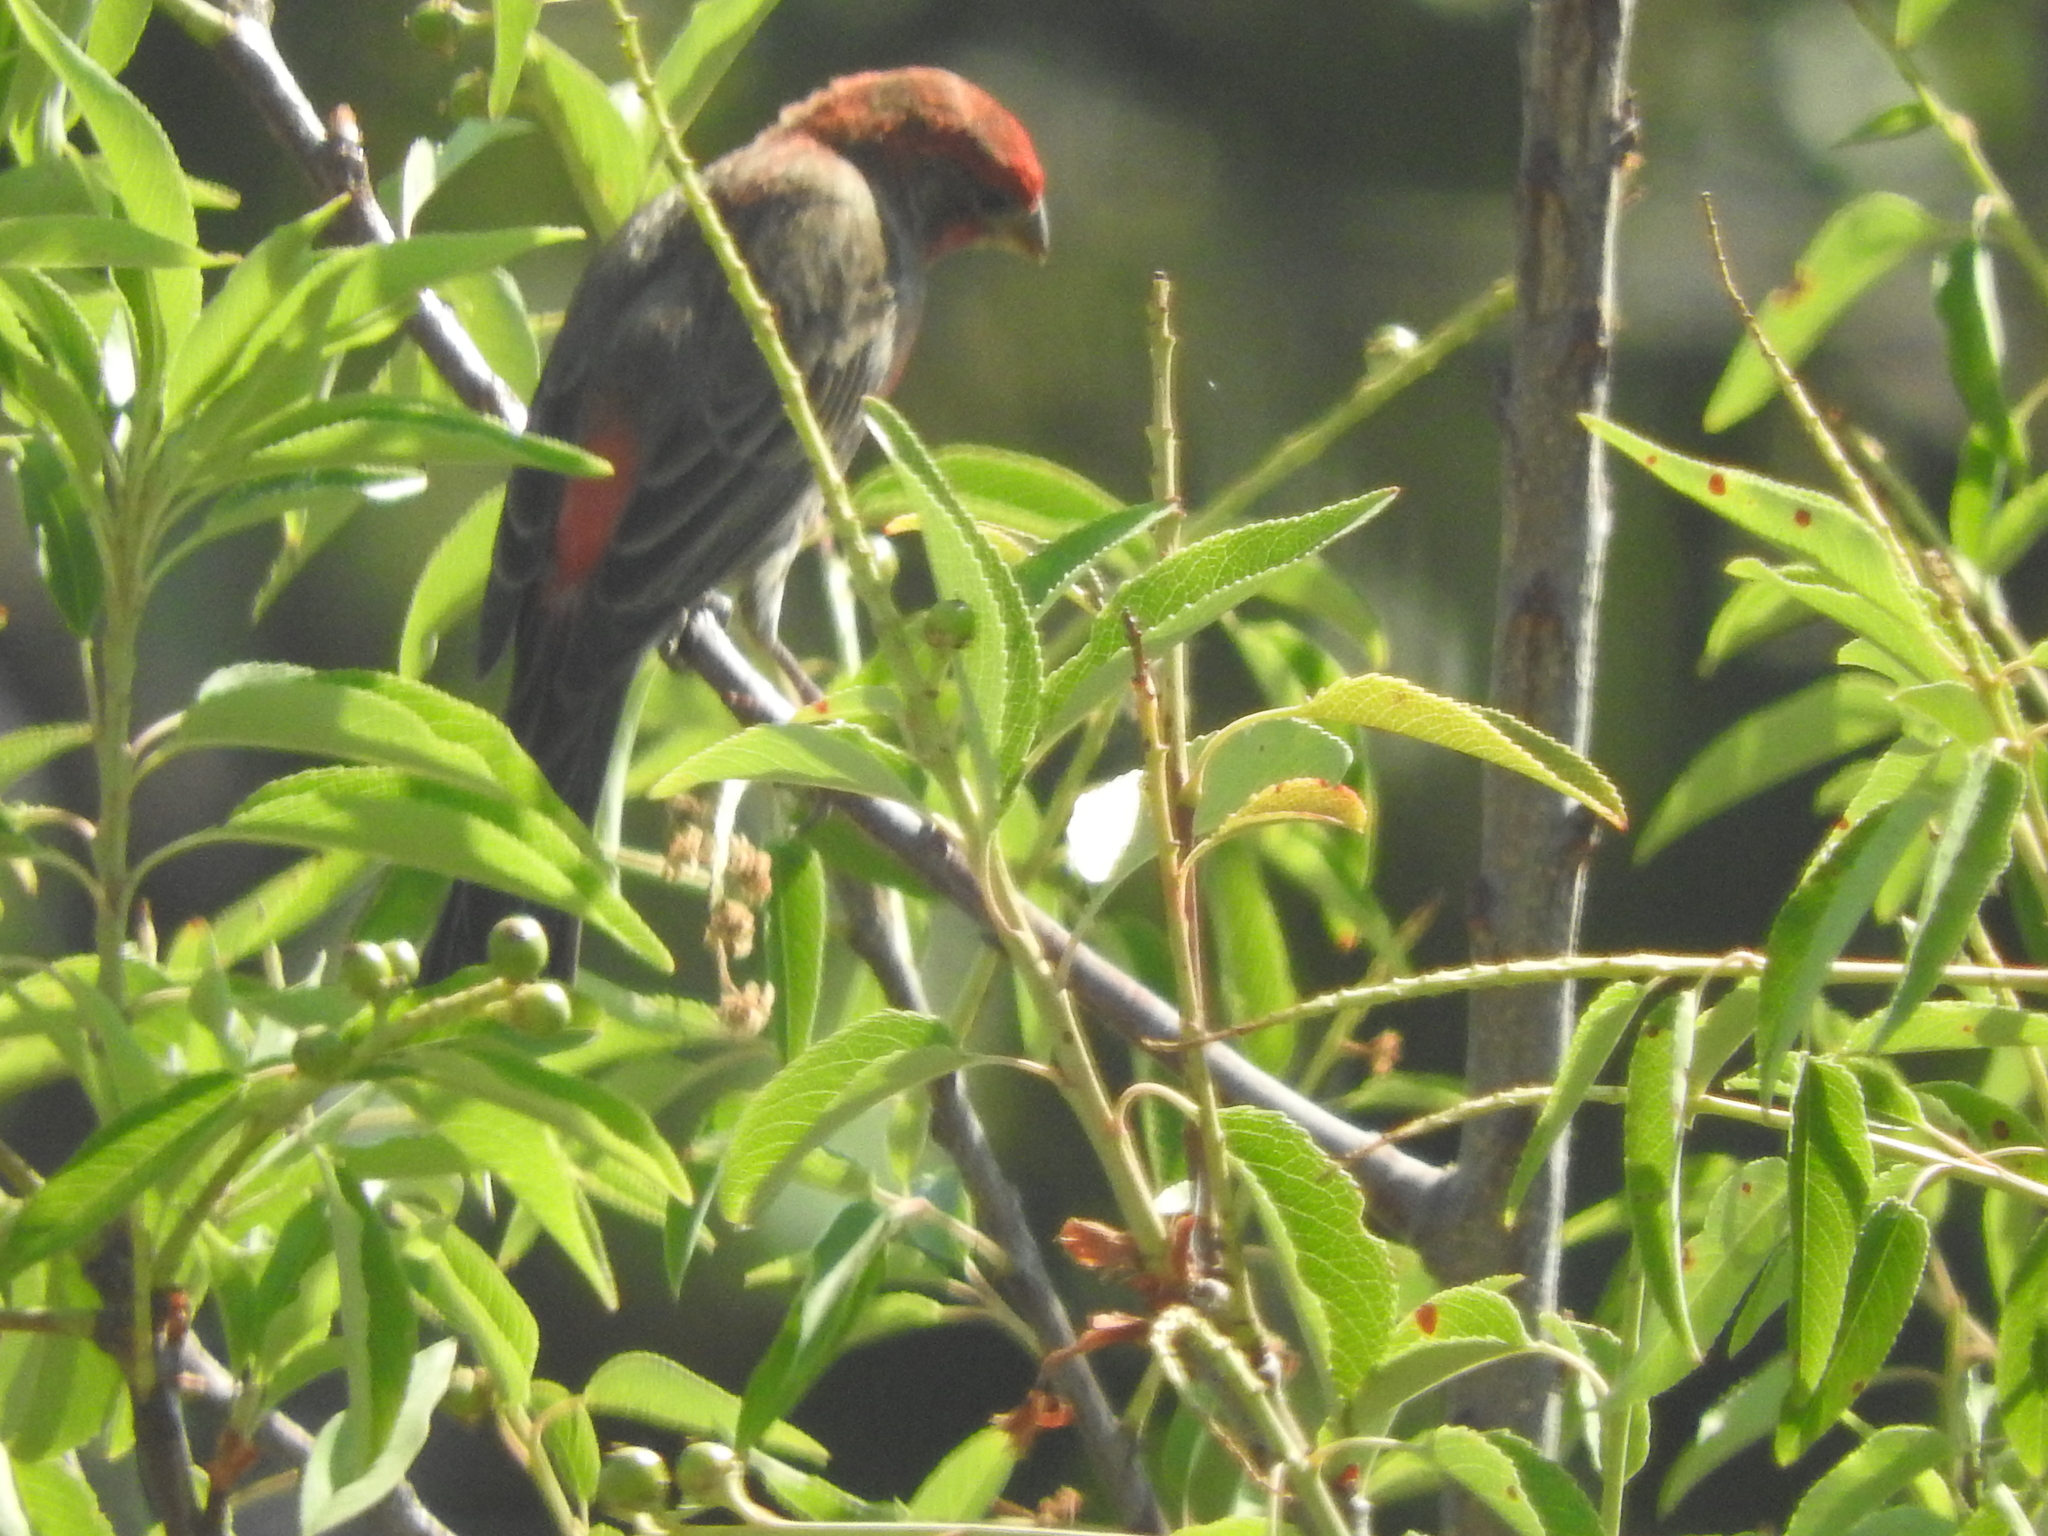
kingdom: Animalia
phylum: Chordata
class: Aves
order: Passeriformes
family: Fringillidae
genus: Haemorhous
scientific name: Haemorhous mexicanus
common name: House finch
